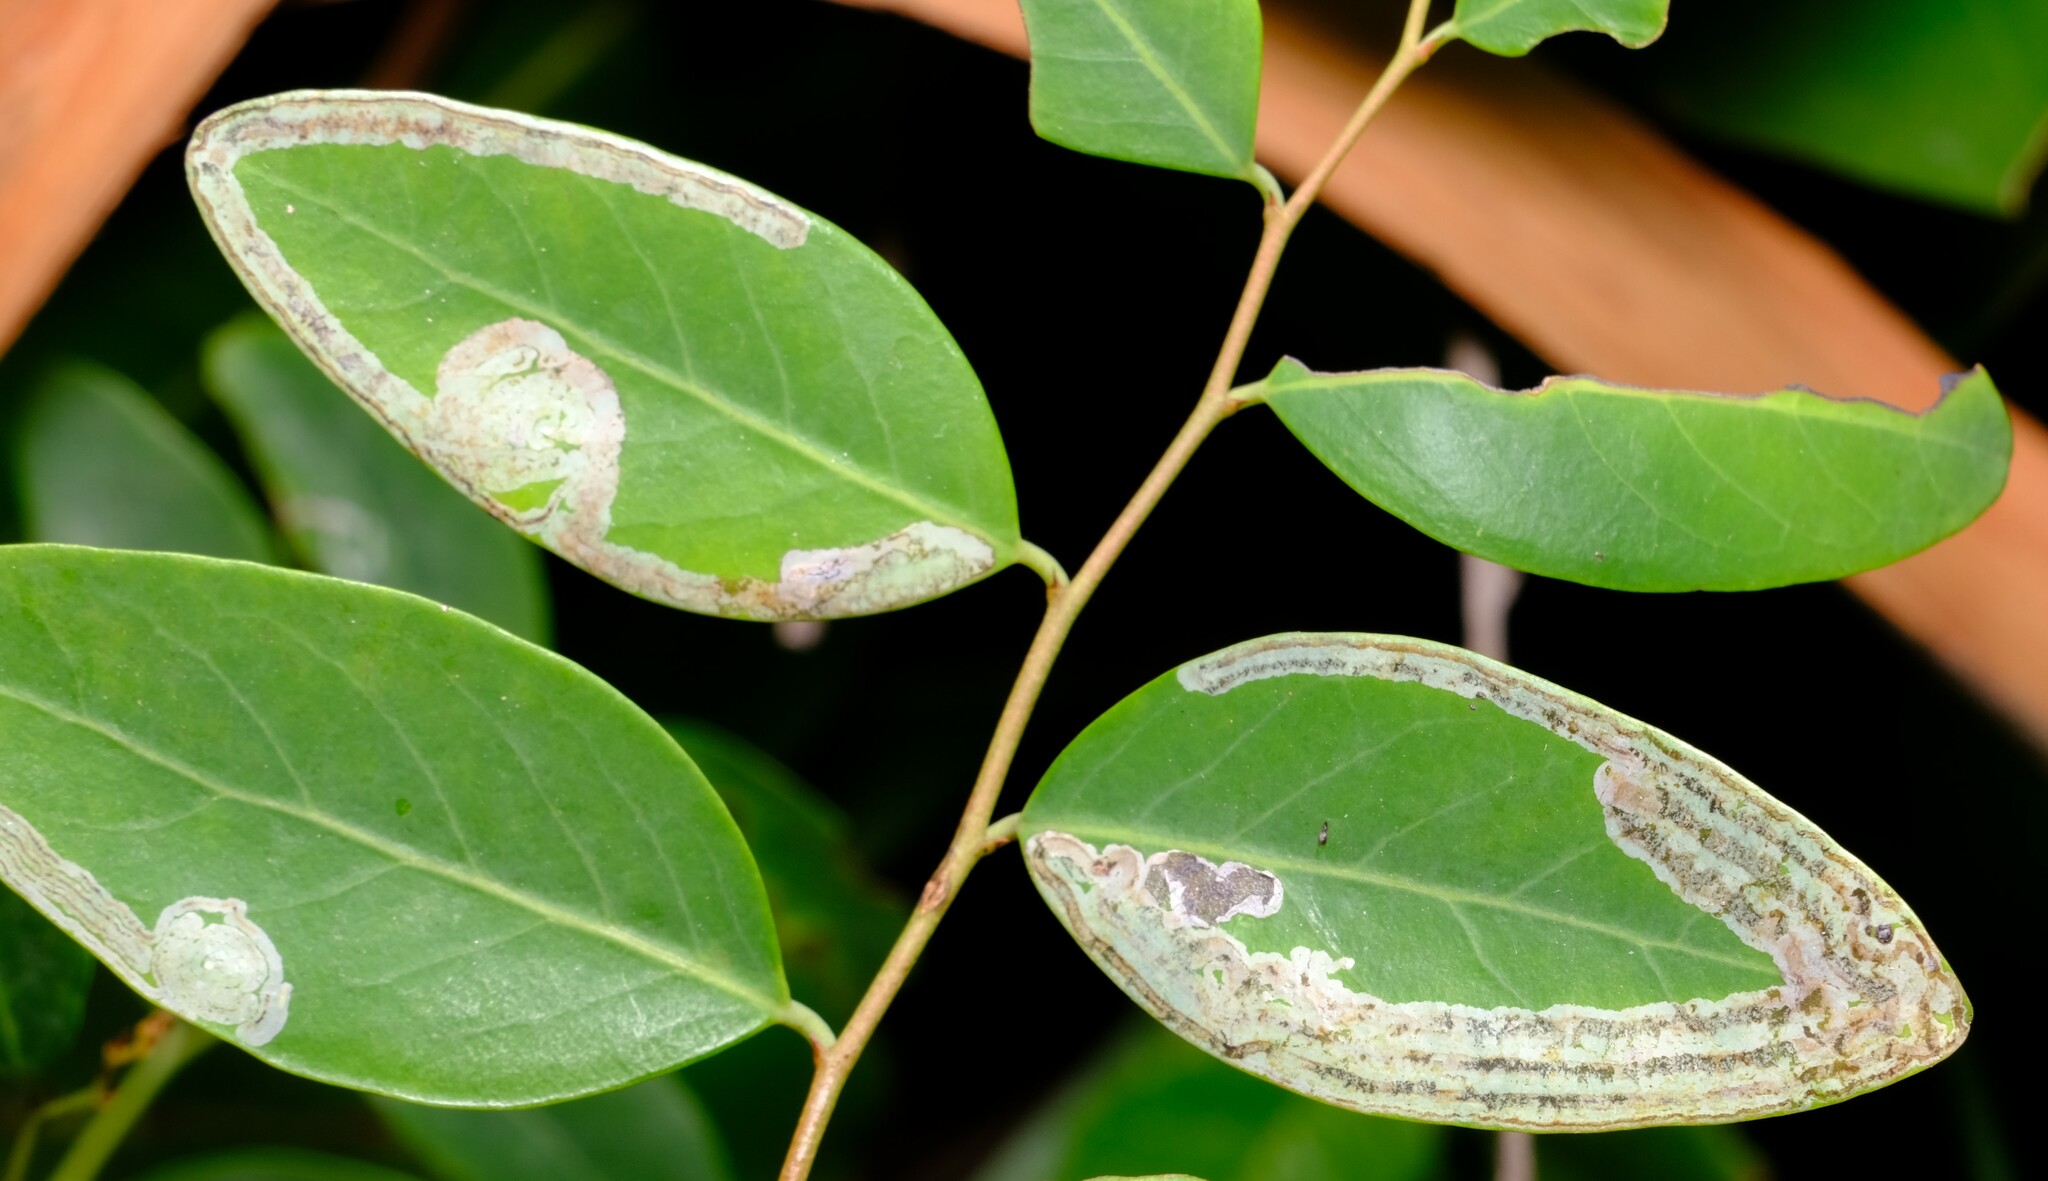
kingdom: Animalia
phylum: Arthropoda
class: Insecta
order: Lepidoptera
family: Gracillariidae
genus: Phyllocnistis
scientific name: Phyllocnistis diaugella
